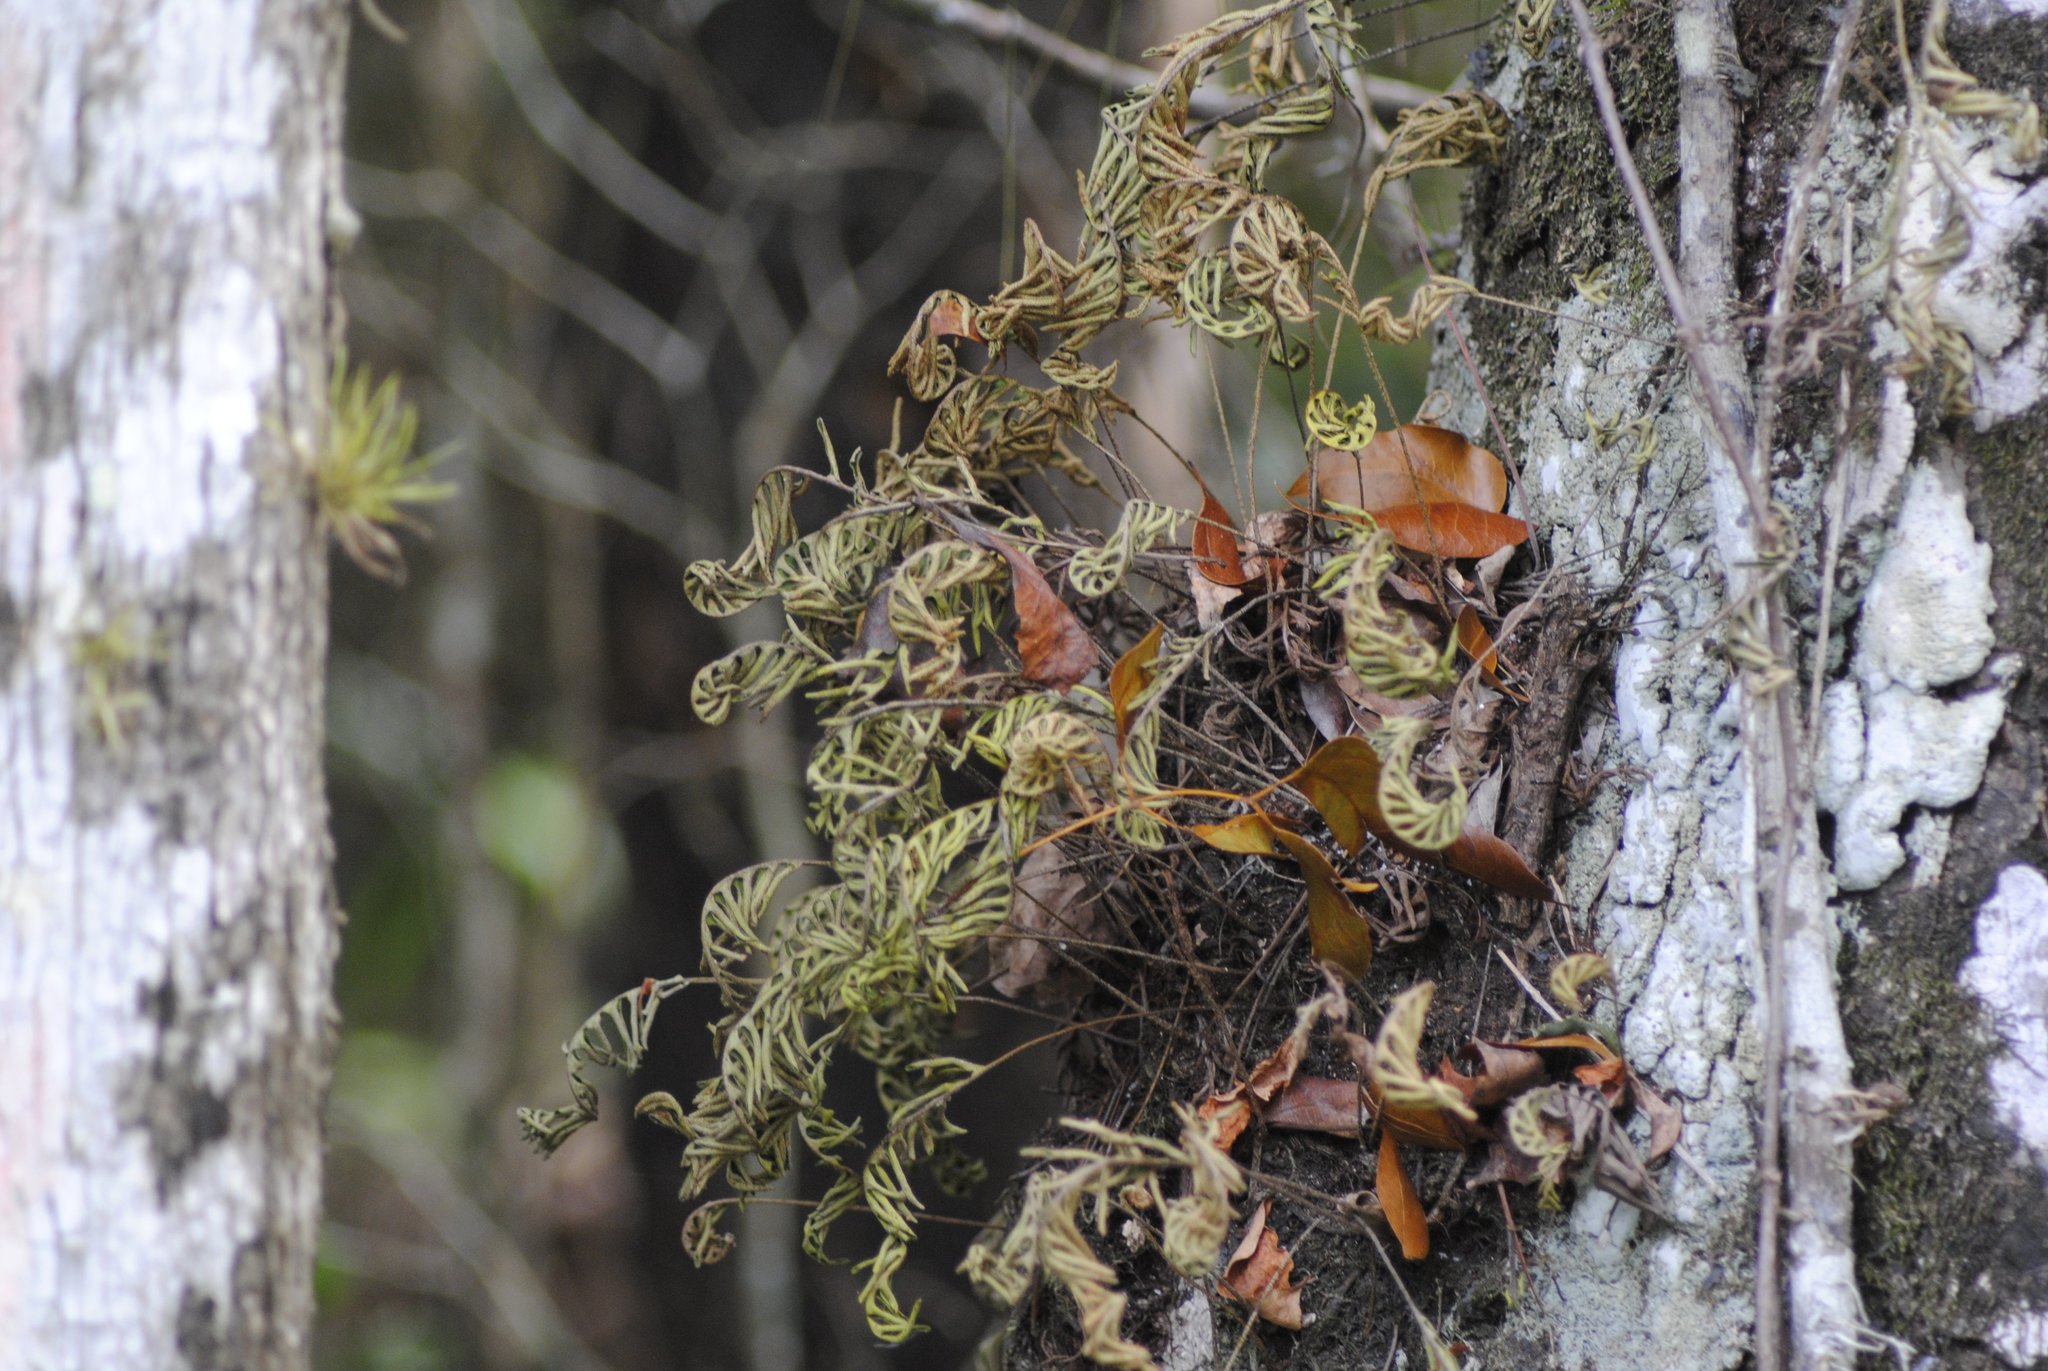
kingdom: Plantae
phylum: Tracheophyta
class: Polypodiopsida
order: Polypodiales
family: Polypodiaceae
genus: Pleopeltis
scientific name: Pleopeltis michauxiana
